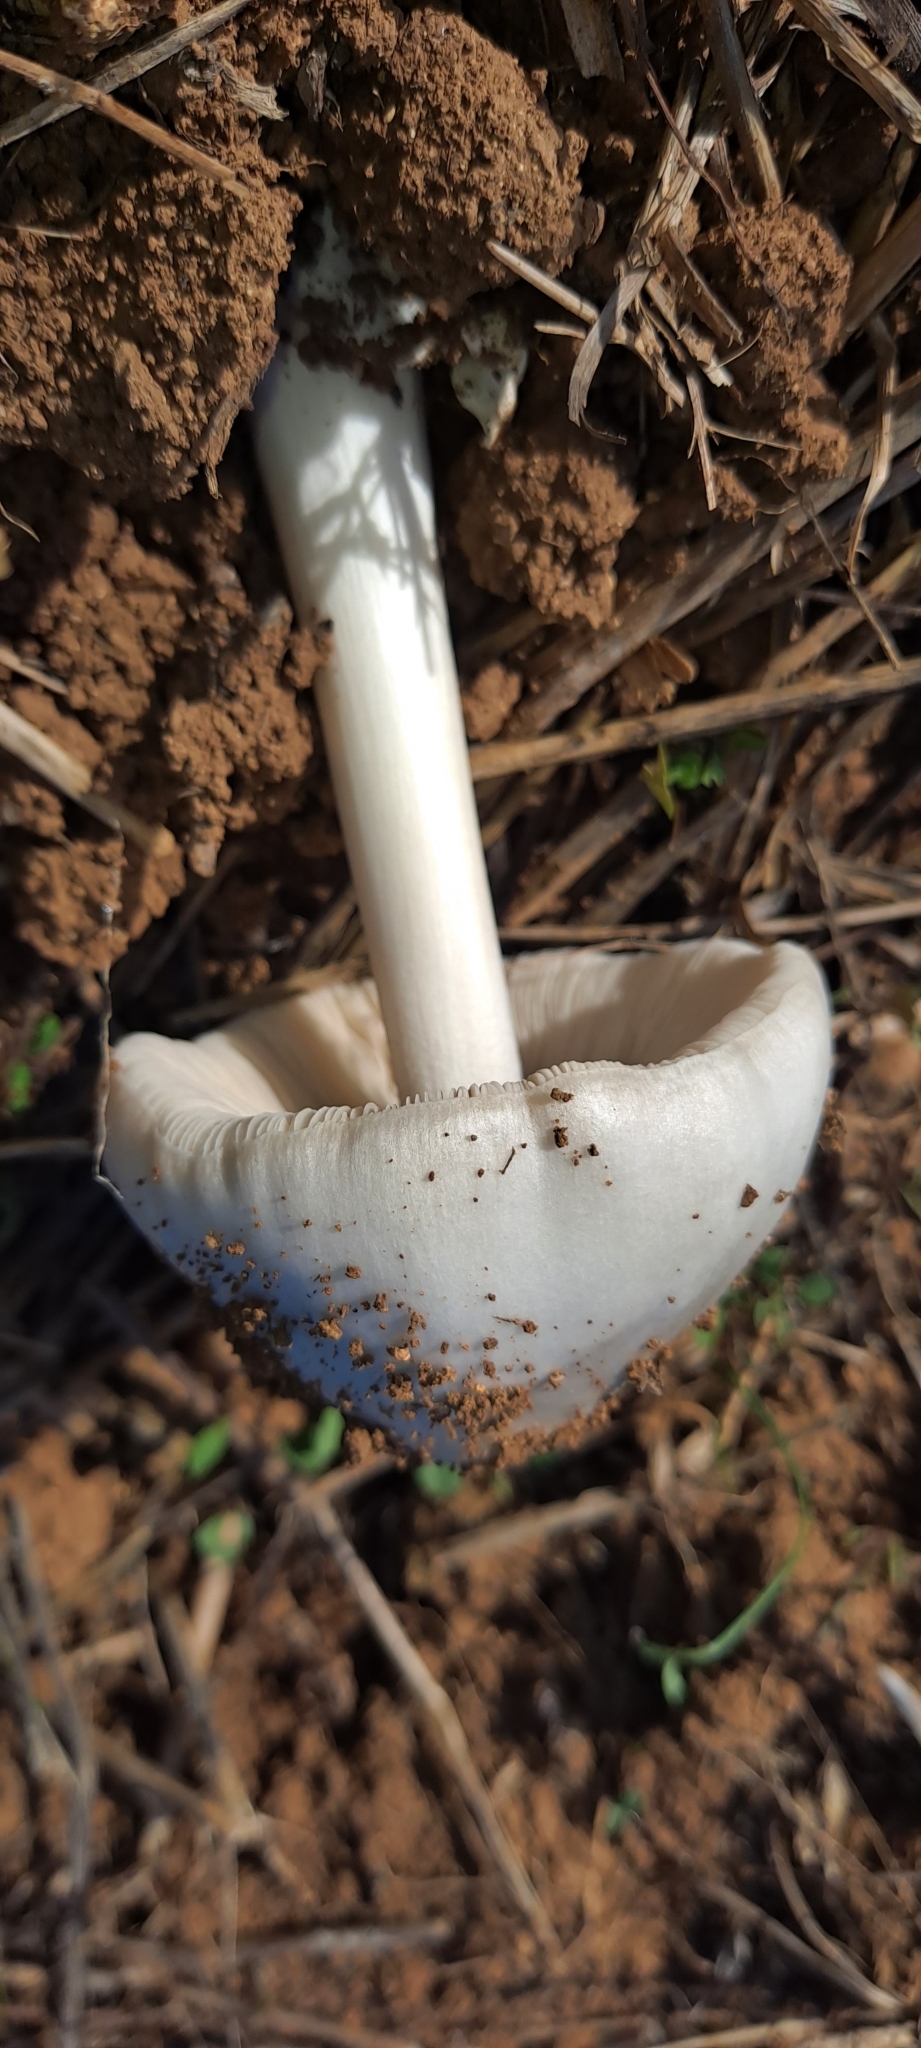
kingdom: Fungi
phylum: Basidiomycota
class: Agaricomycetes
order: Agaricales
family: Pluteaceae
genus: Volvopluteus
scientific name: Volvopluteus gloiocephalus
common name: Stubble rosegill
